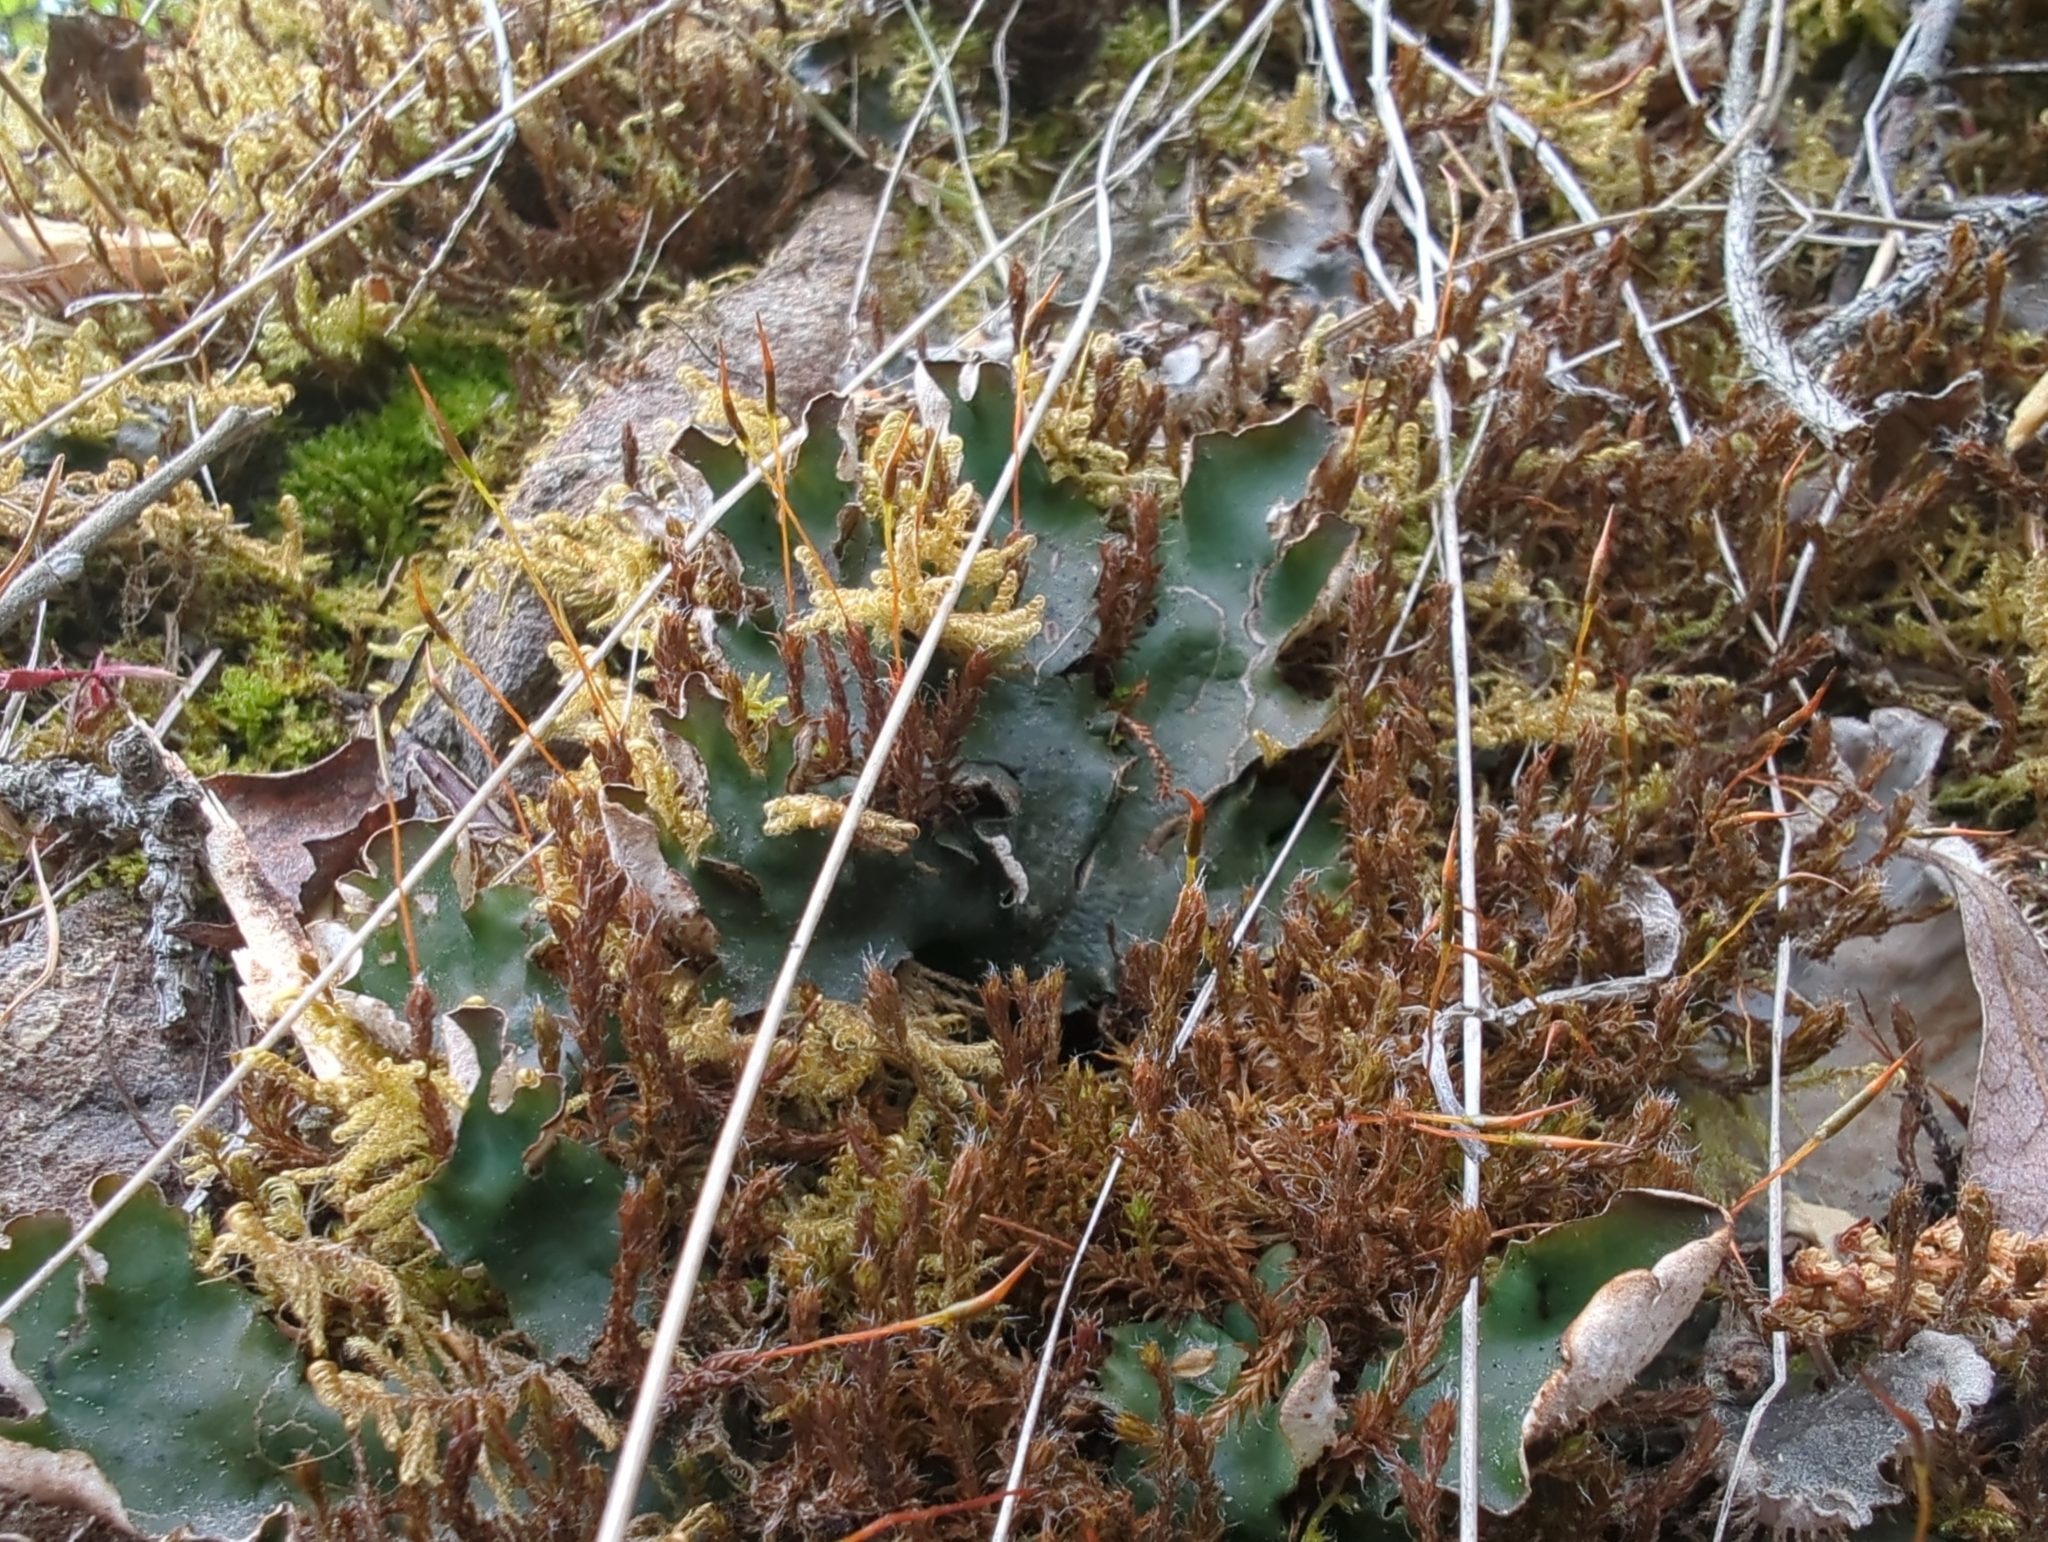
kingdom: Fungi
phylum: Ascomycota
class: Lecanoromycetes
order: Peltigerales
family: Peltigeraceae
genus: Peltigera
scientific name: Peltigera malacea
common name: Matt felt lichen
